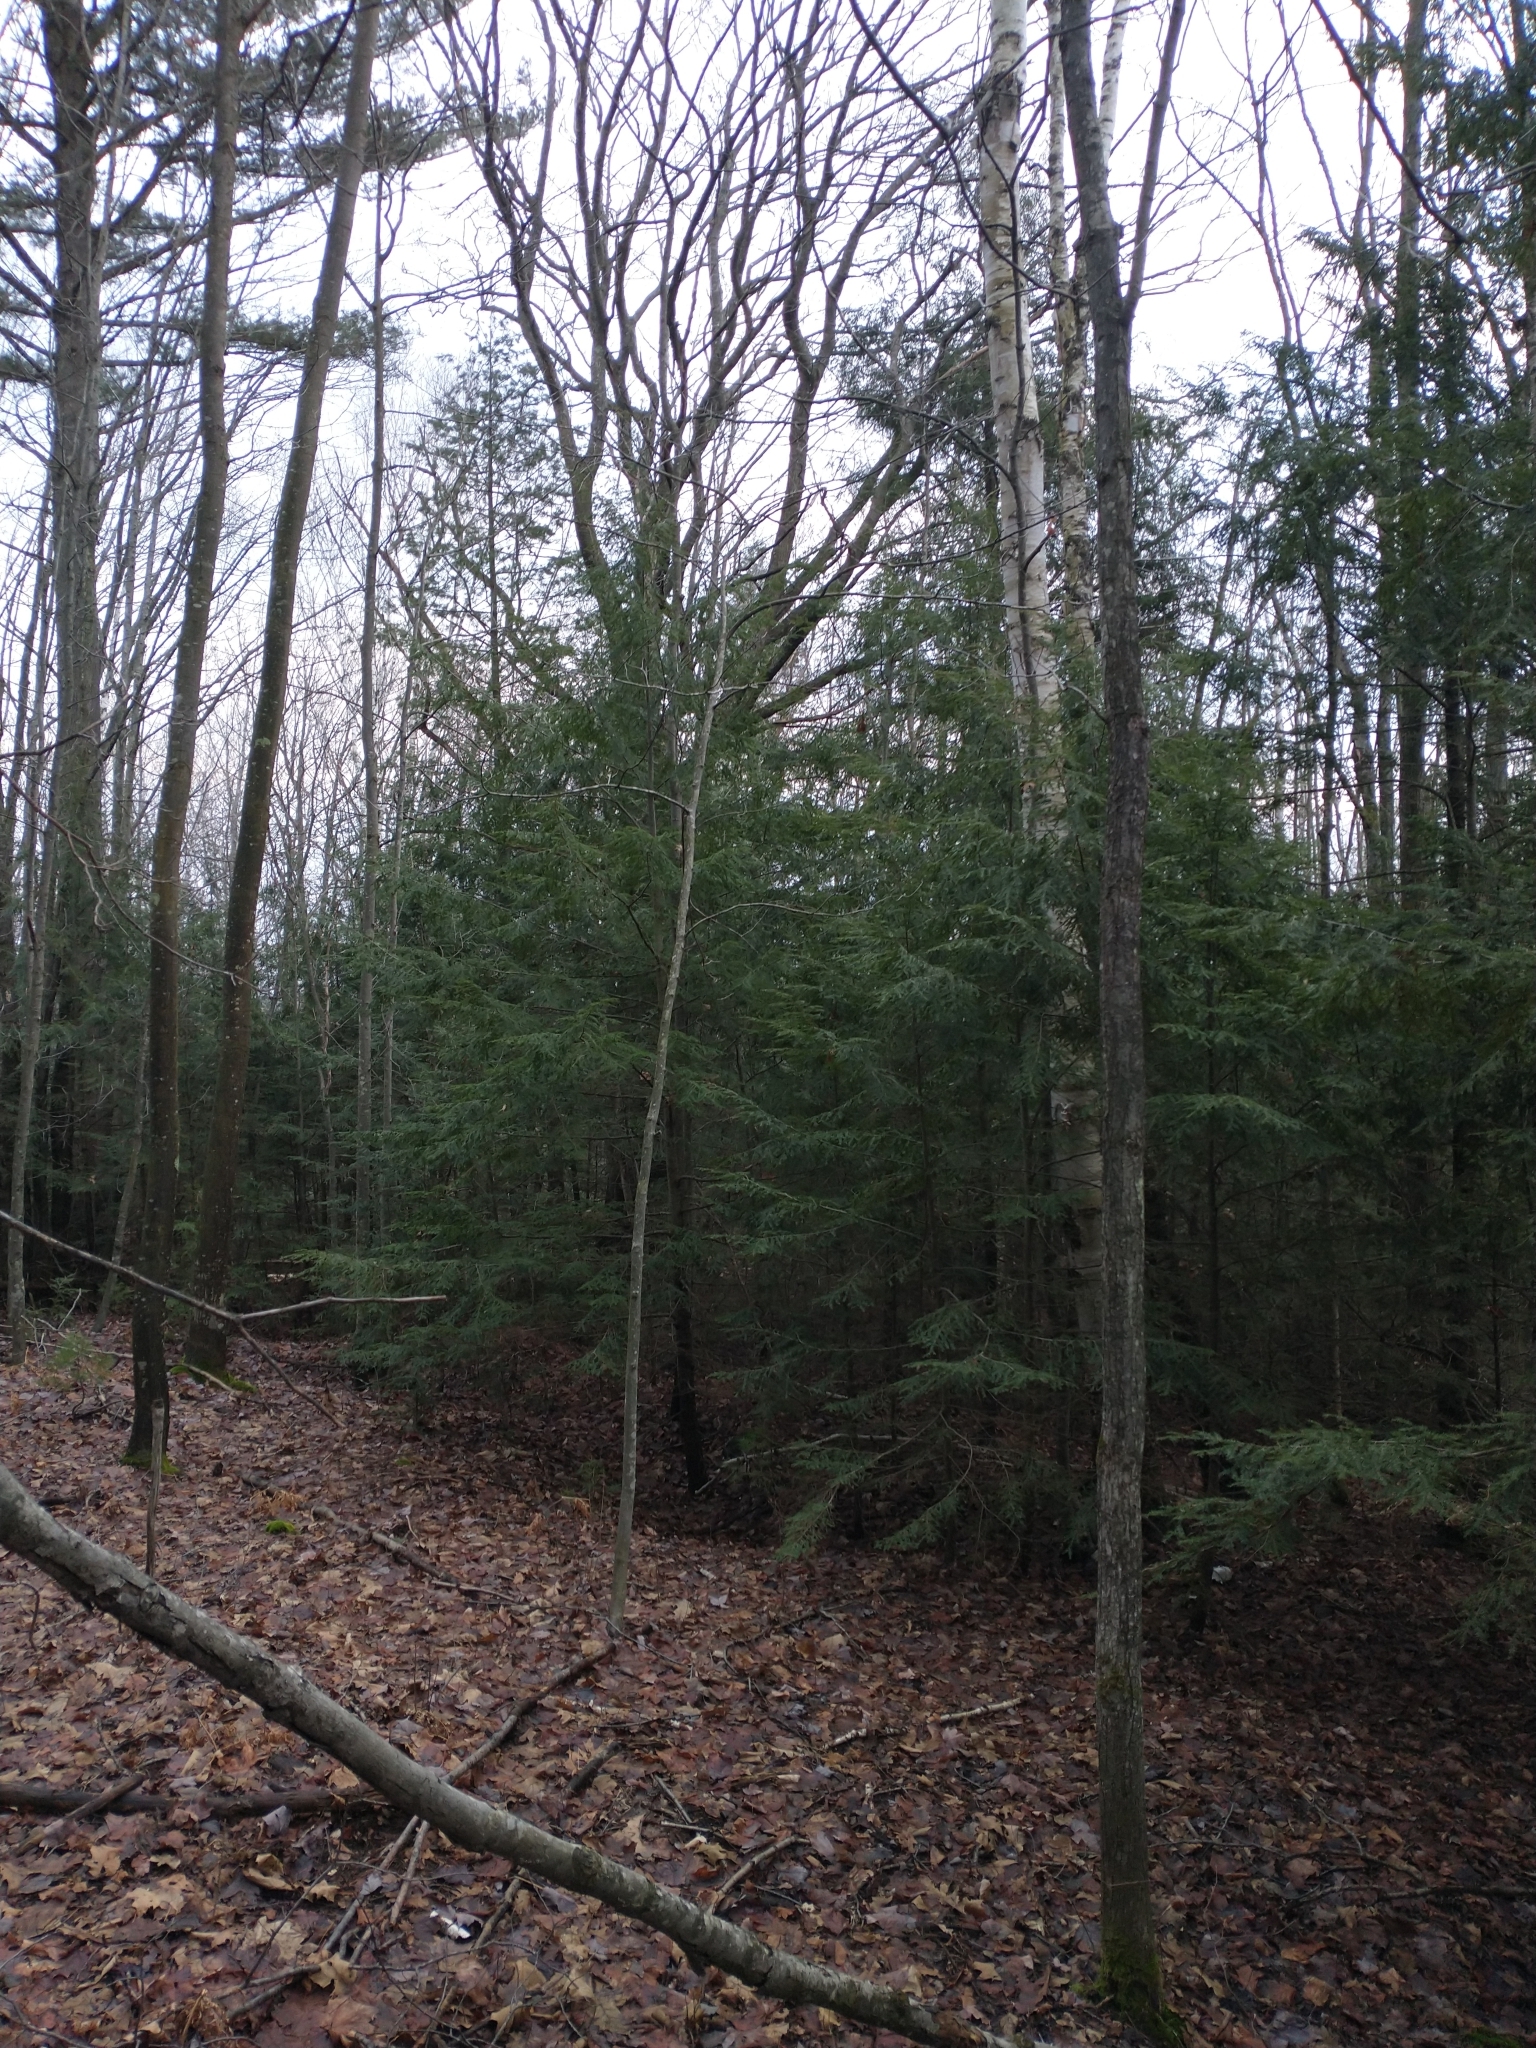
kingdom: Plantae
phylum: Tracheophyta
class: Pinopsida
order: Pinales
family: Pinaceae
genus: Tsuga
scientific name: Tsuga canadensis
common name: Eastern hemlock
